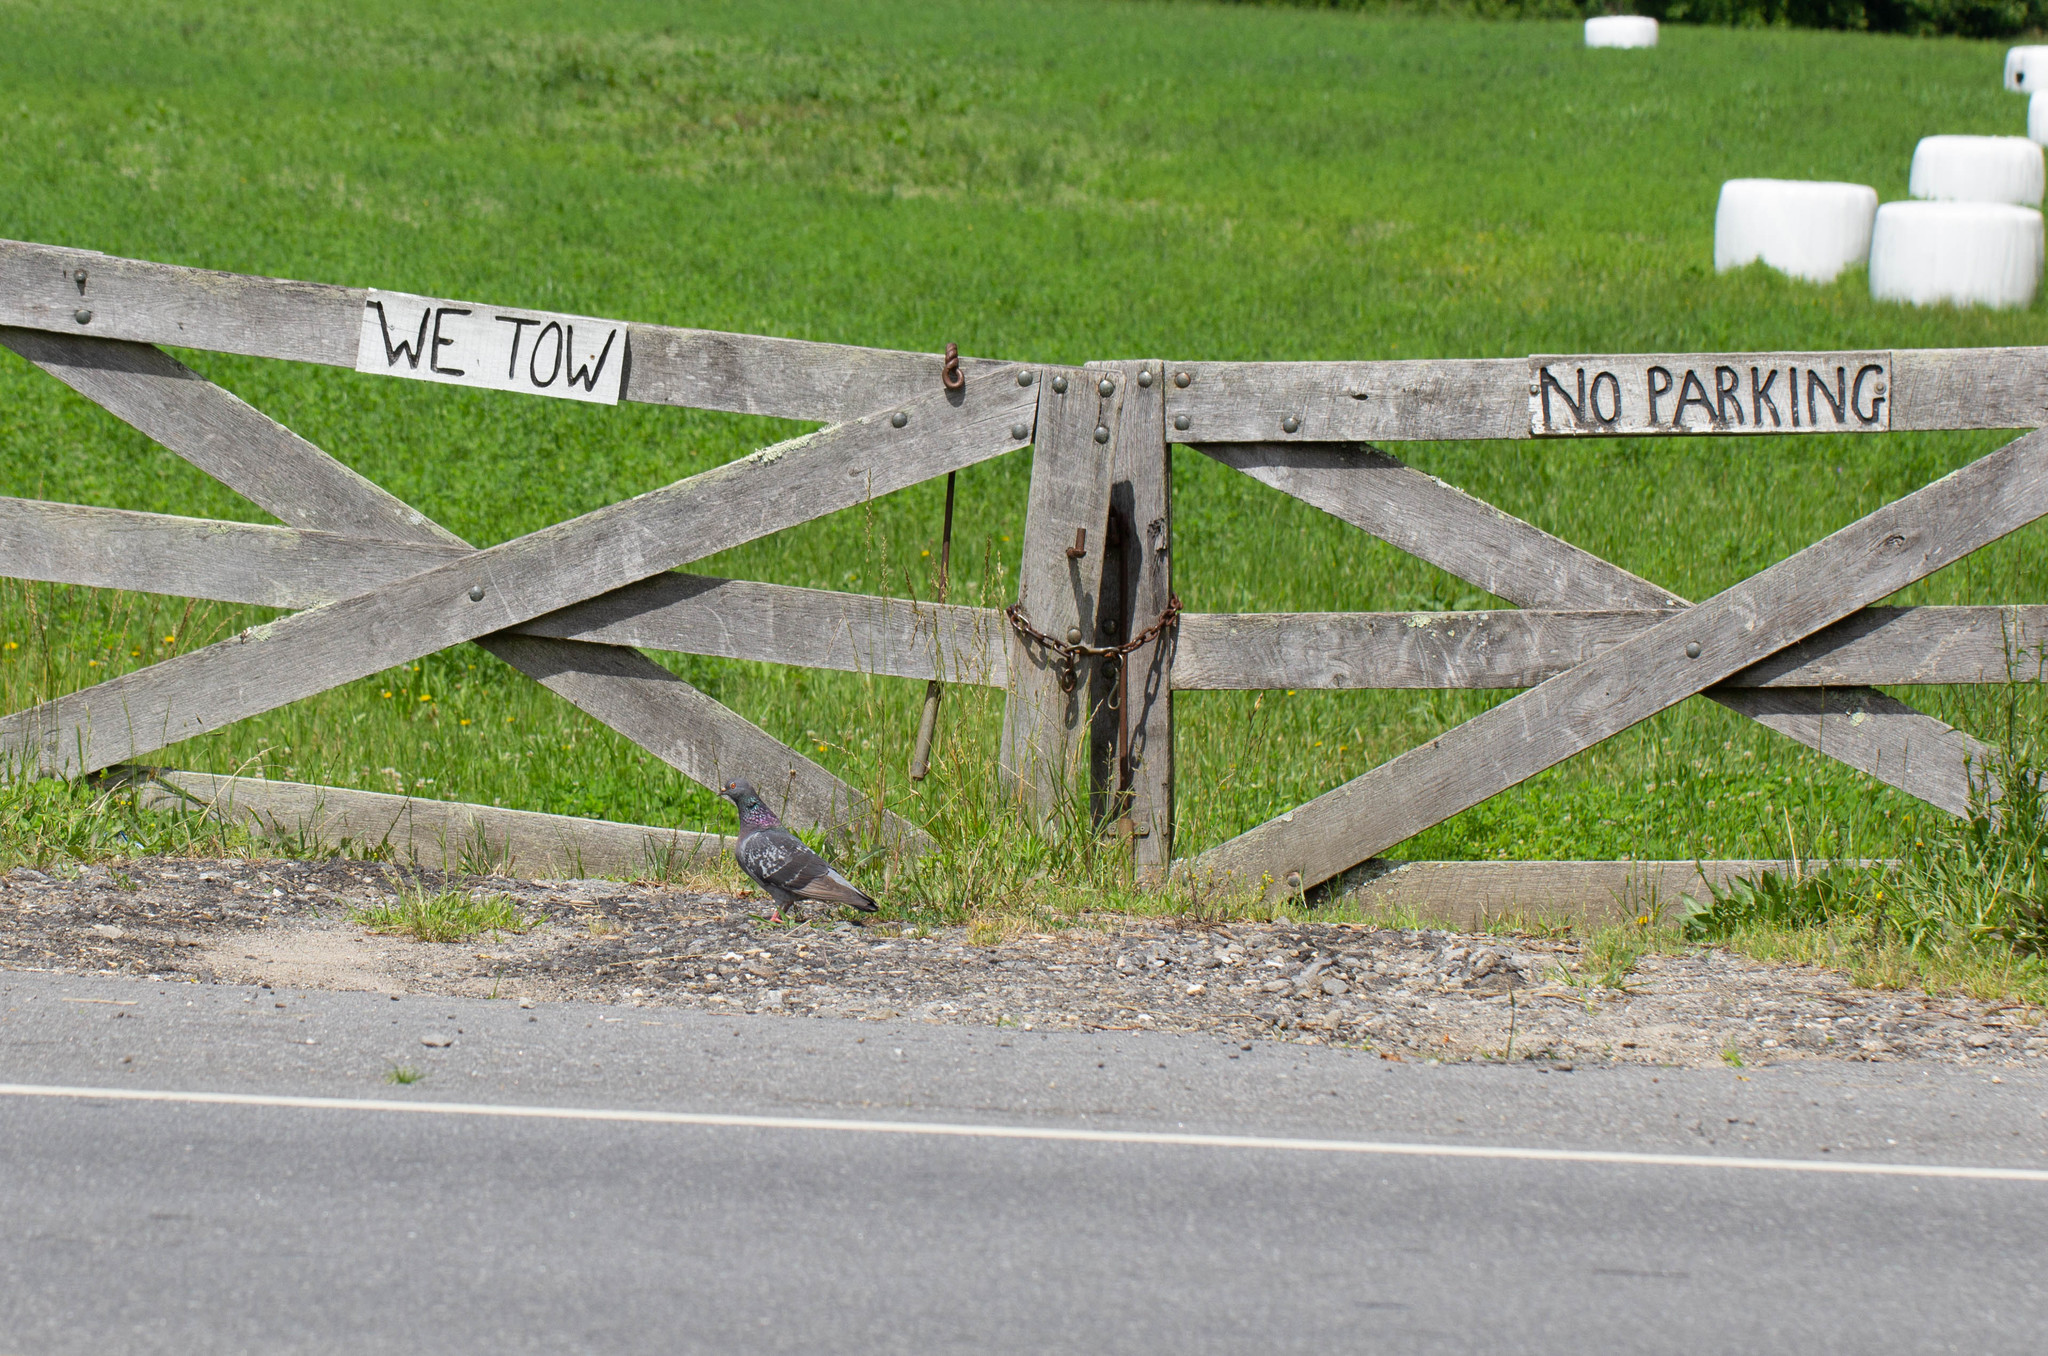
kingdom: Animalia
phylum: Chordata
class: Aves
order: Columbiformes
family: Columbidae
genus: Columba
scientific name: Columba livia
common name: Rock pigeon
